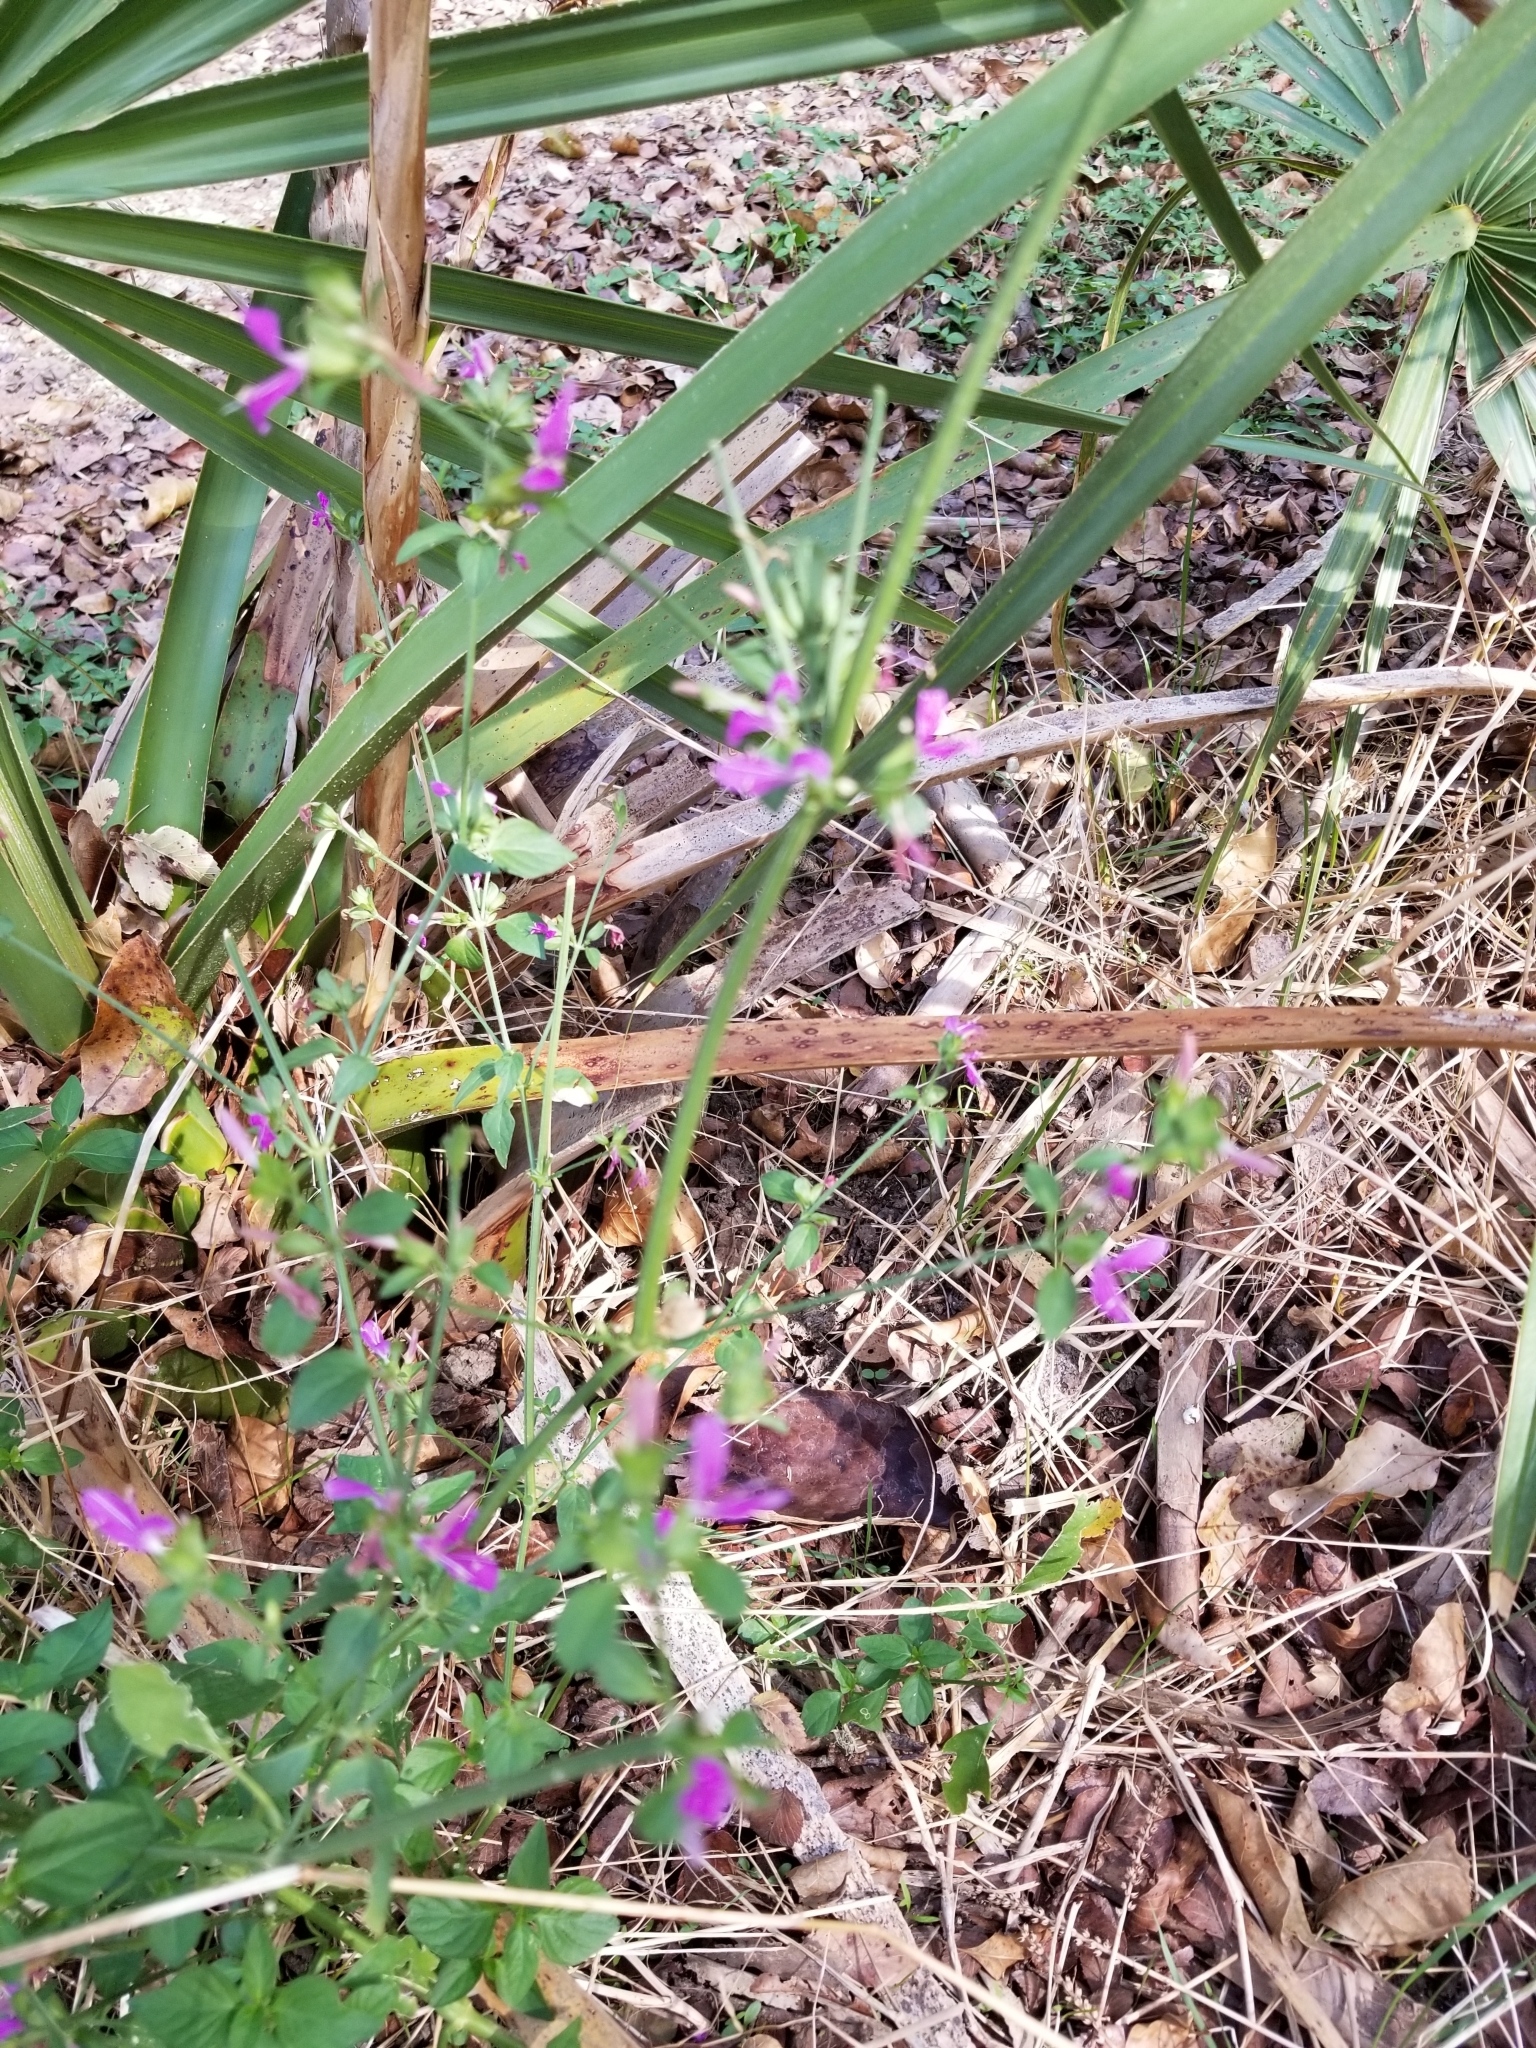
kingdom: Plantae
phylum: Tracheophyta
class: Magnoliopsida
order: Lamiales
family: Acanthaceae
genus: Dicliptera
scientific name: Dicliptera brachiata
